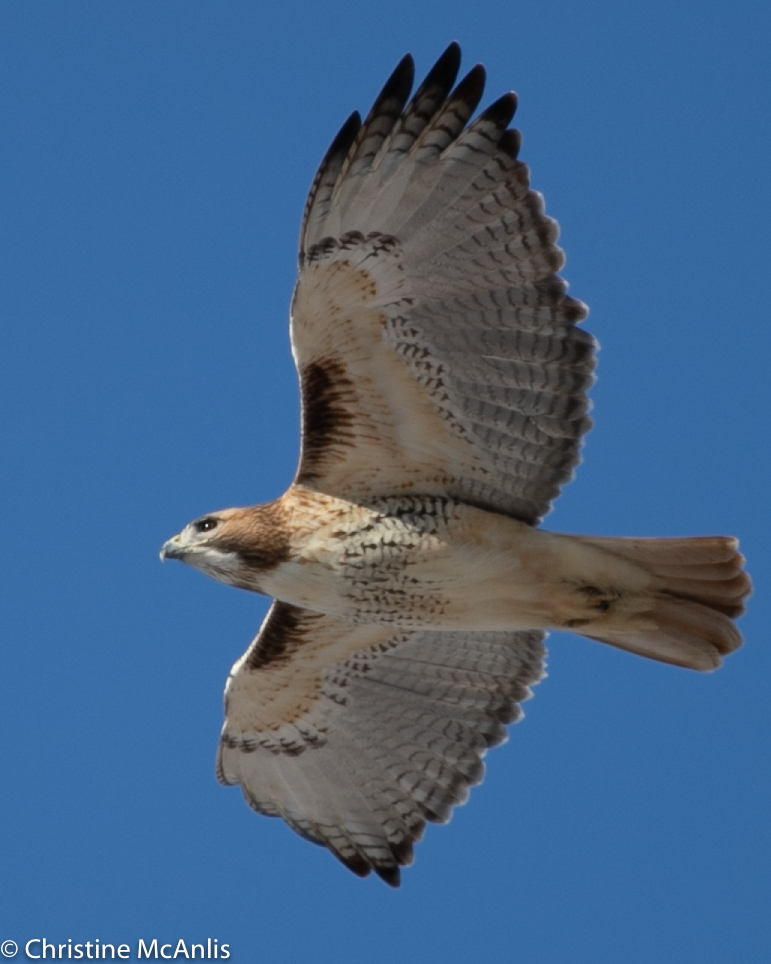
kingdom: Animalia
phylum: Chordata
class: Aves
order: Accipitriformes
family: Accipitridae
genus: Buteo
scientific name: Buteo jamaicensis
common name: Red-tailed hawk
